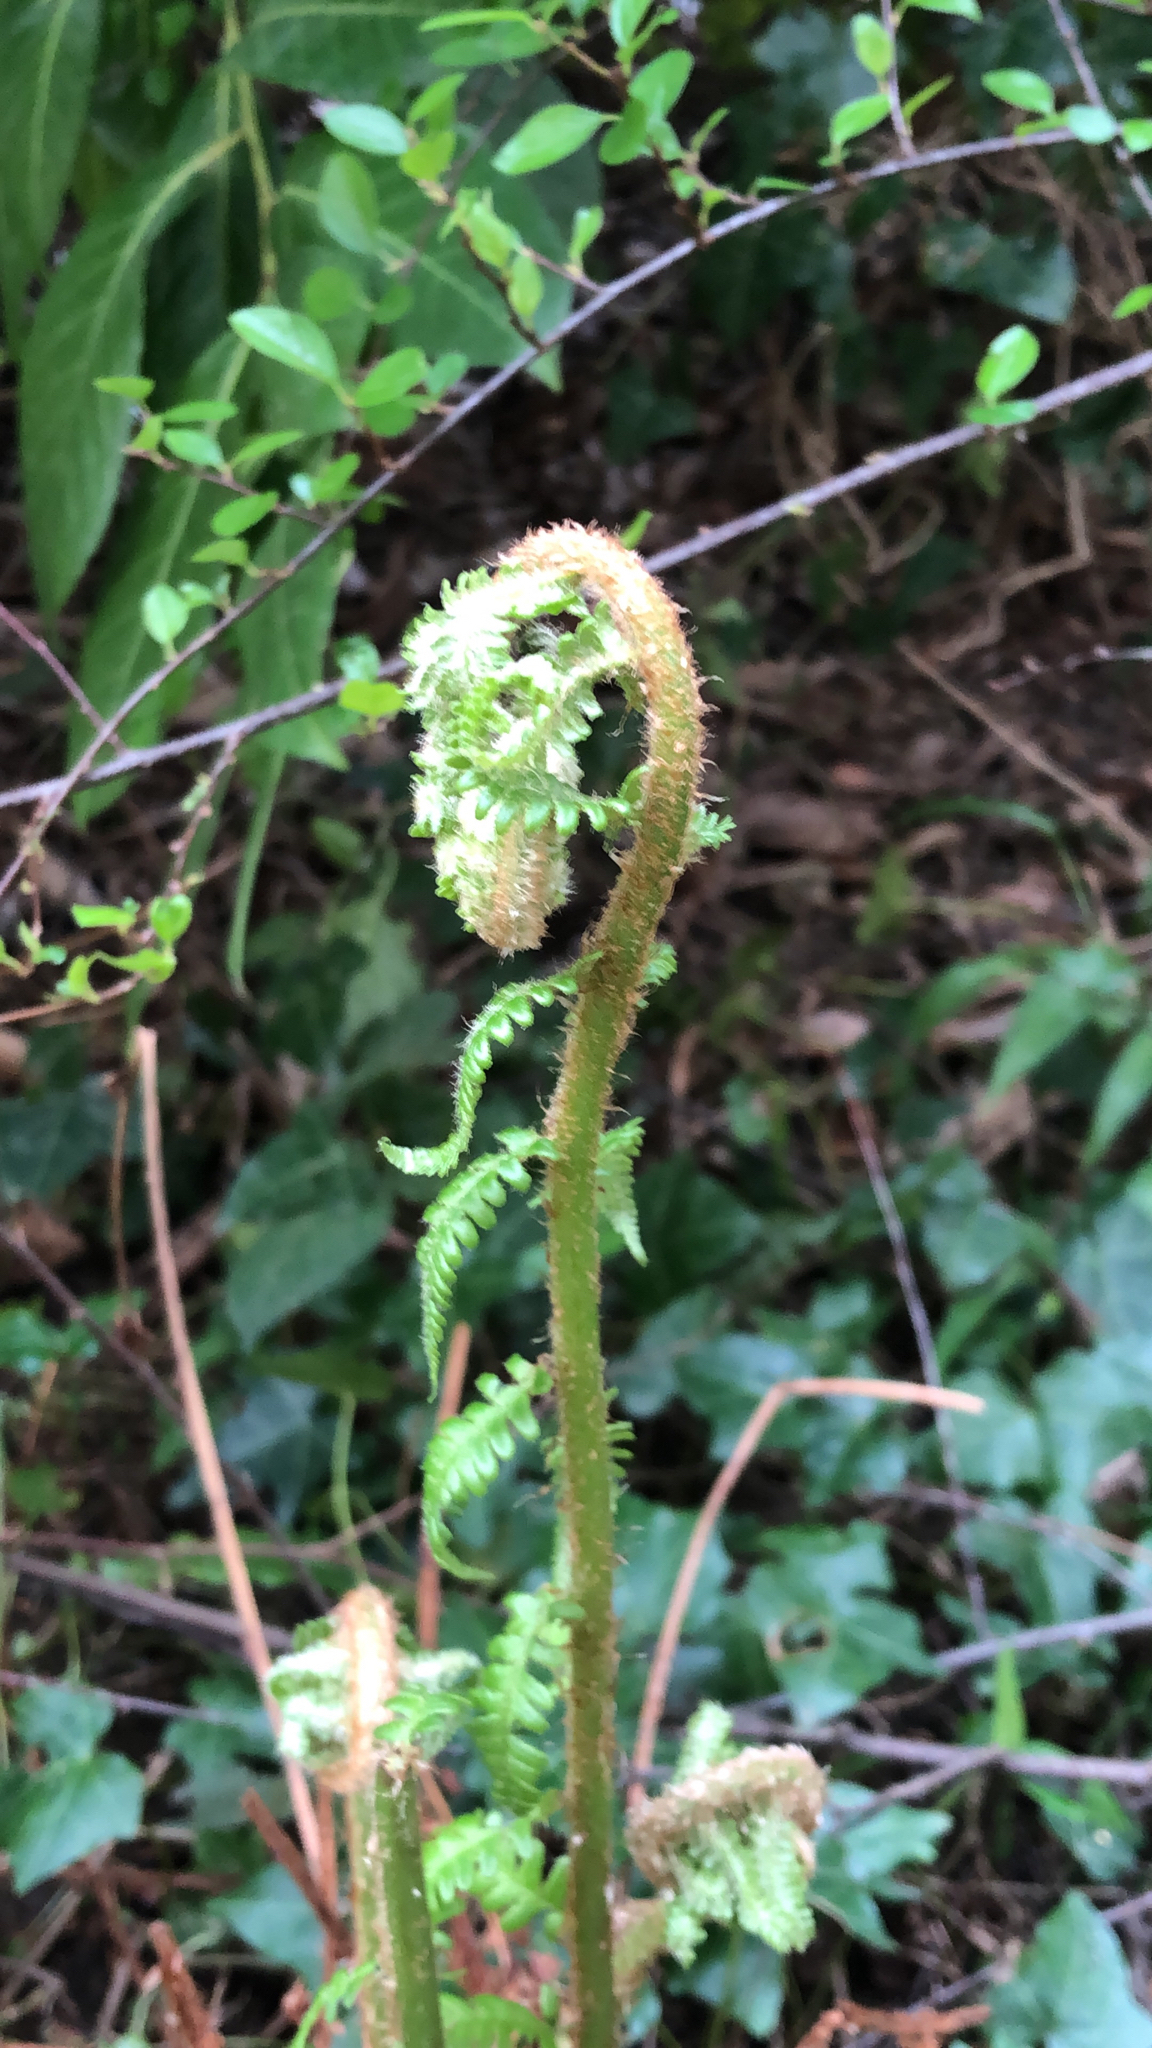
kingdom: Plantae
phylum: Tracheophyta
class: Polypodiopsida
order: Polypodiales
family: Dryopteridaceae
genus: Dryopteris
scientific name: Dryopteris filix-mas
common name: Male fern
